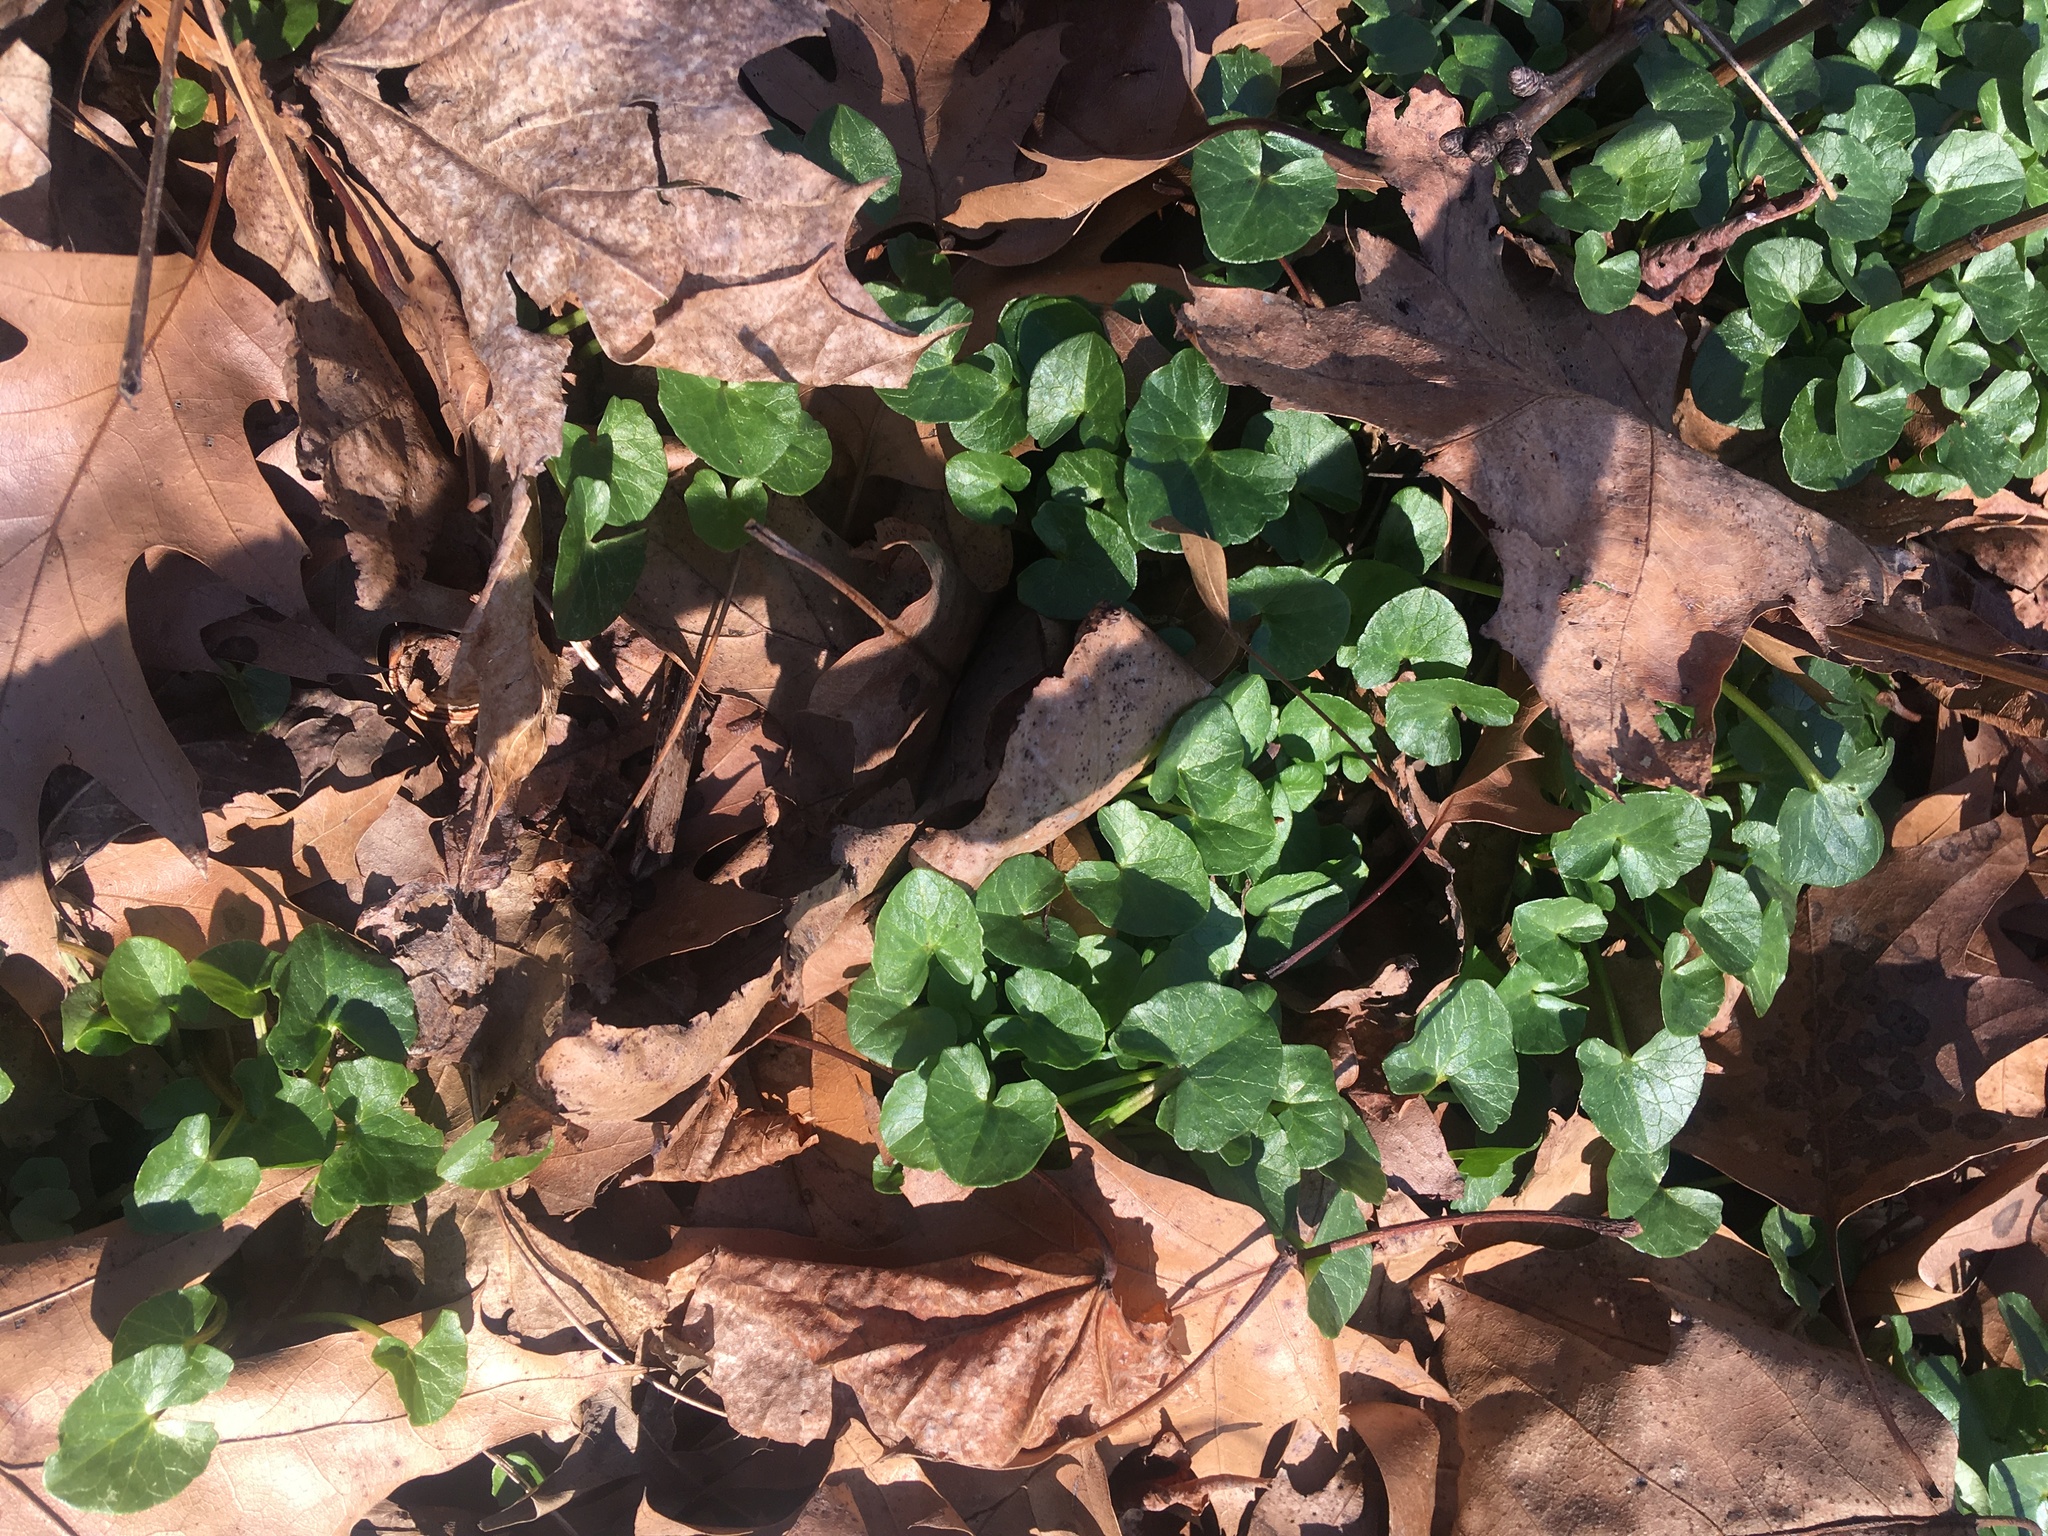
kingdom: Plantae
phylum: Tracheophyta
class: Magnoliopsida
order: Ranunculales
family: Ranunculaceae
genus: Ficaria
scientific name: Ficaria verna
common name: Lesser celandine
